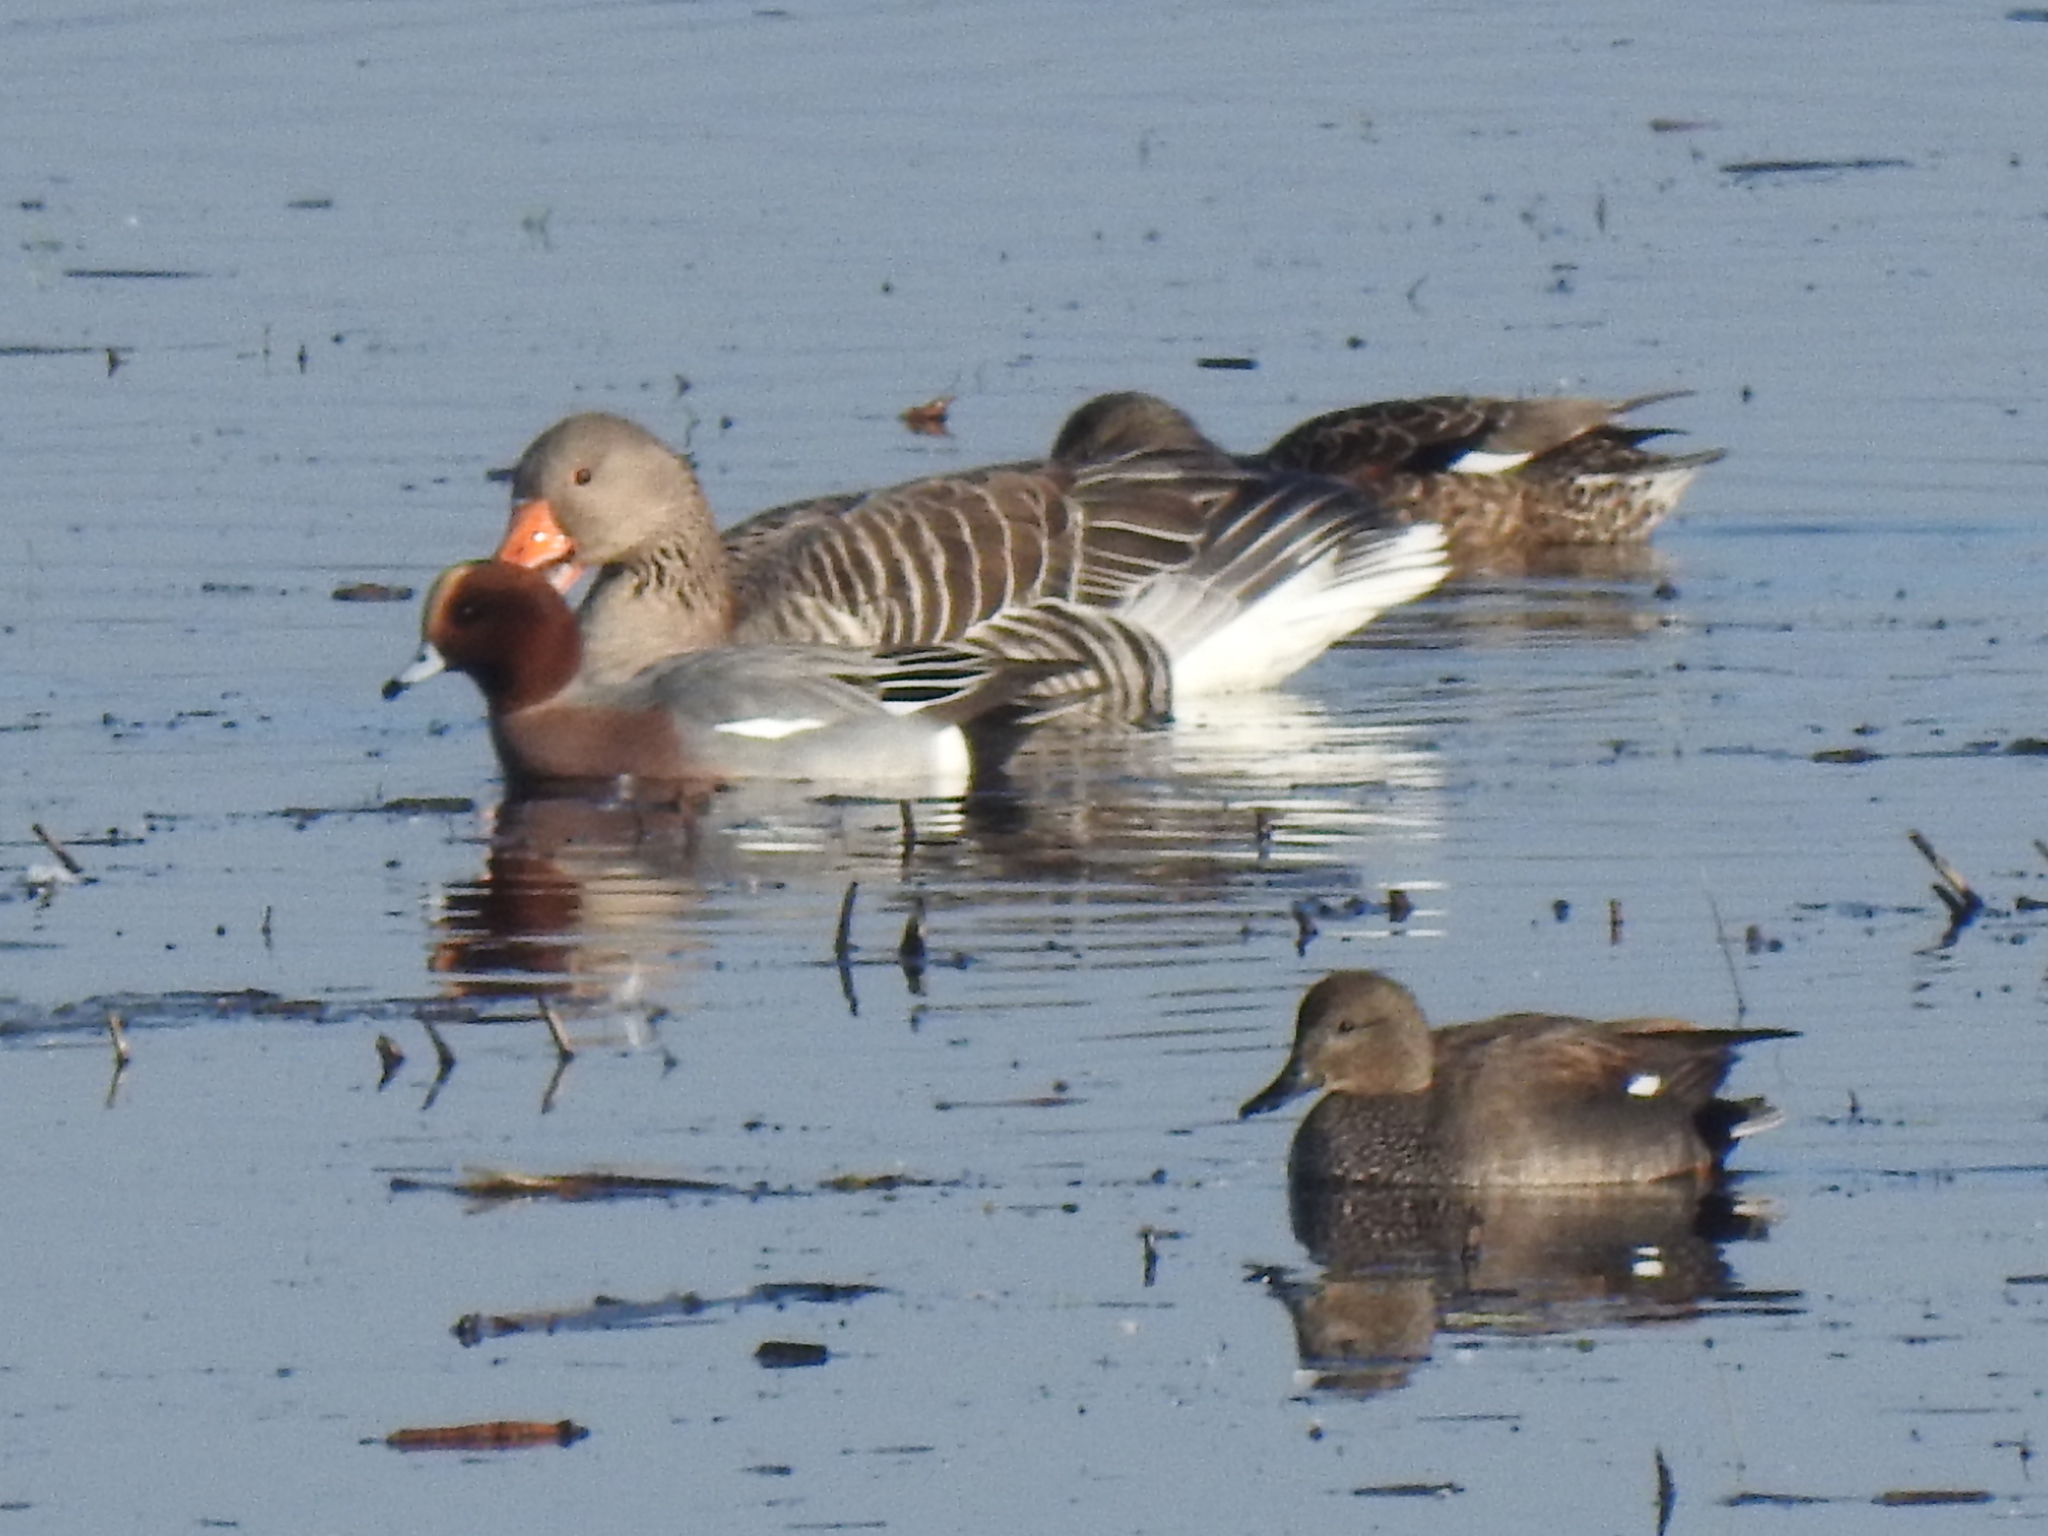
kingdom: Animalia
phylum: Chordata
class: Aves
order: Anseriformes
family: Anatidae
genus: Mareca
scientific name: Mareca strepera
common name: Gadwall
